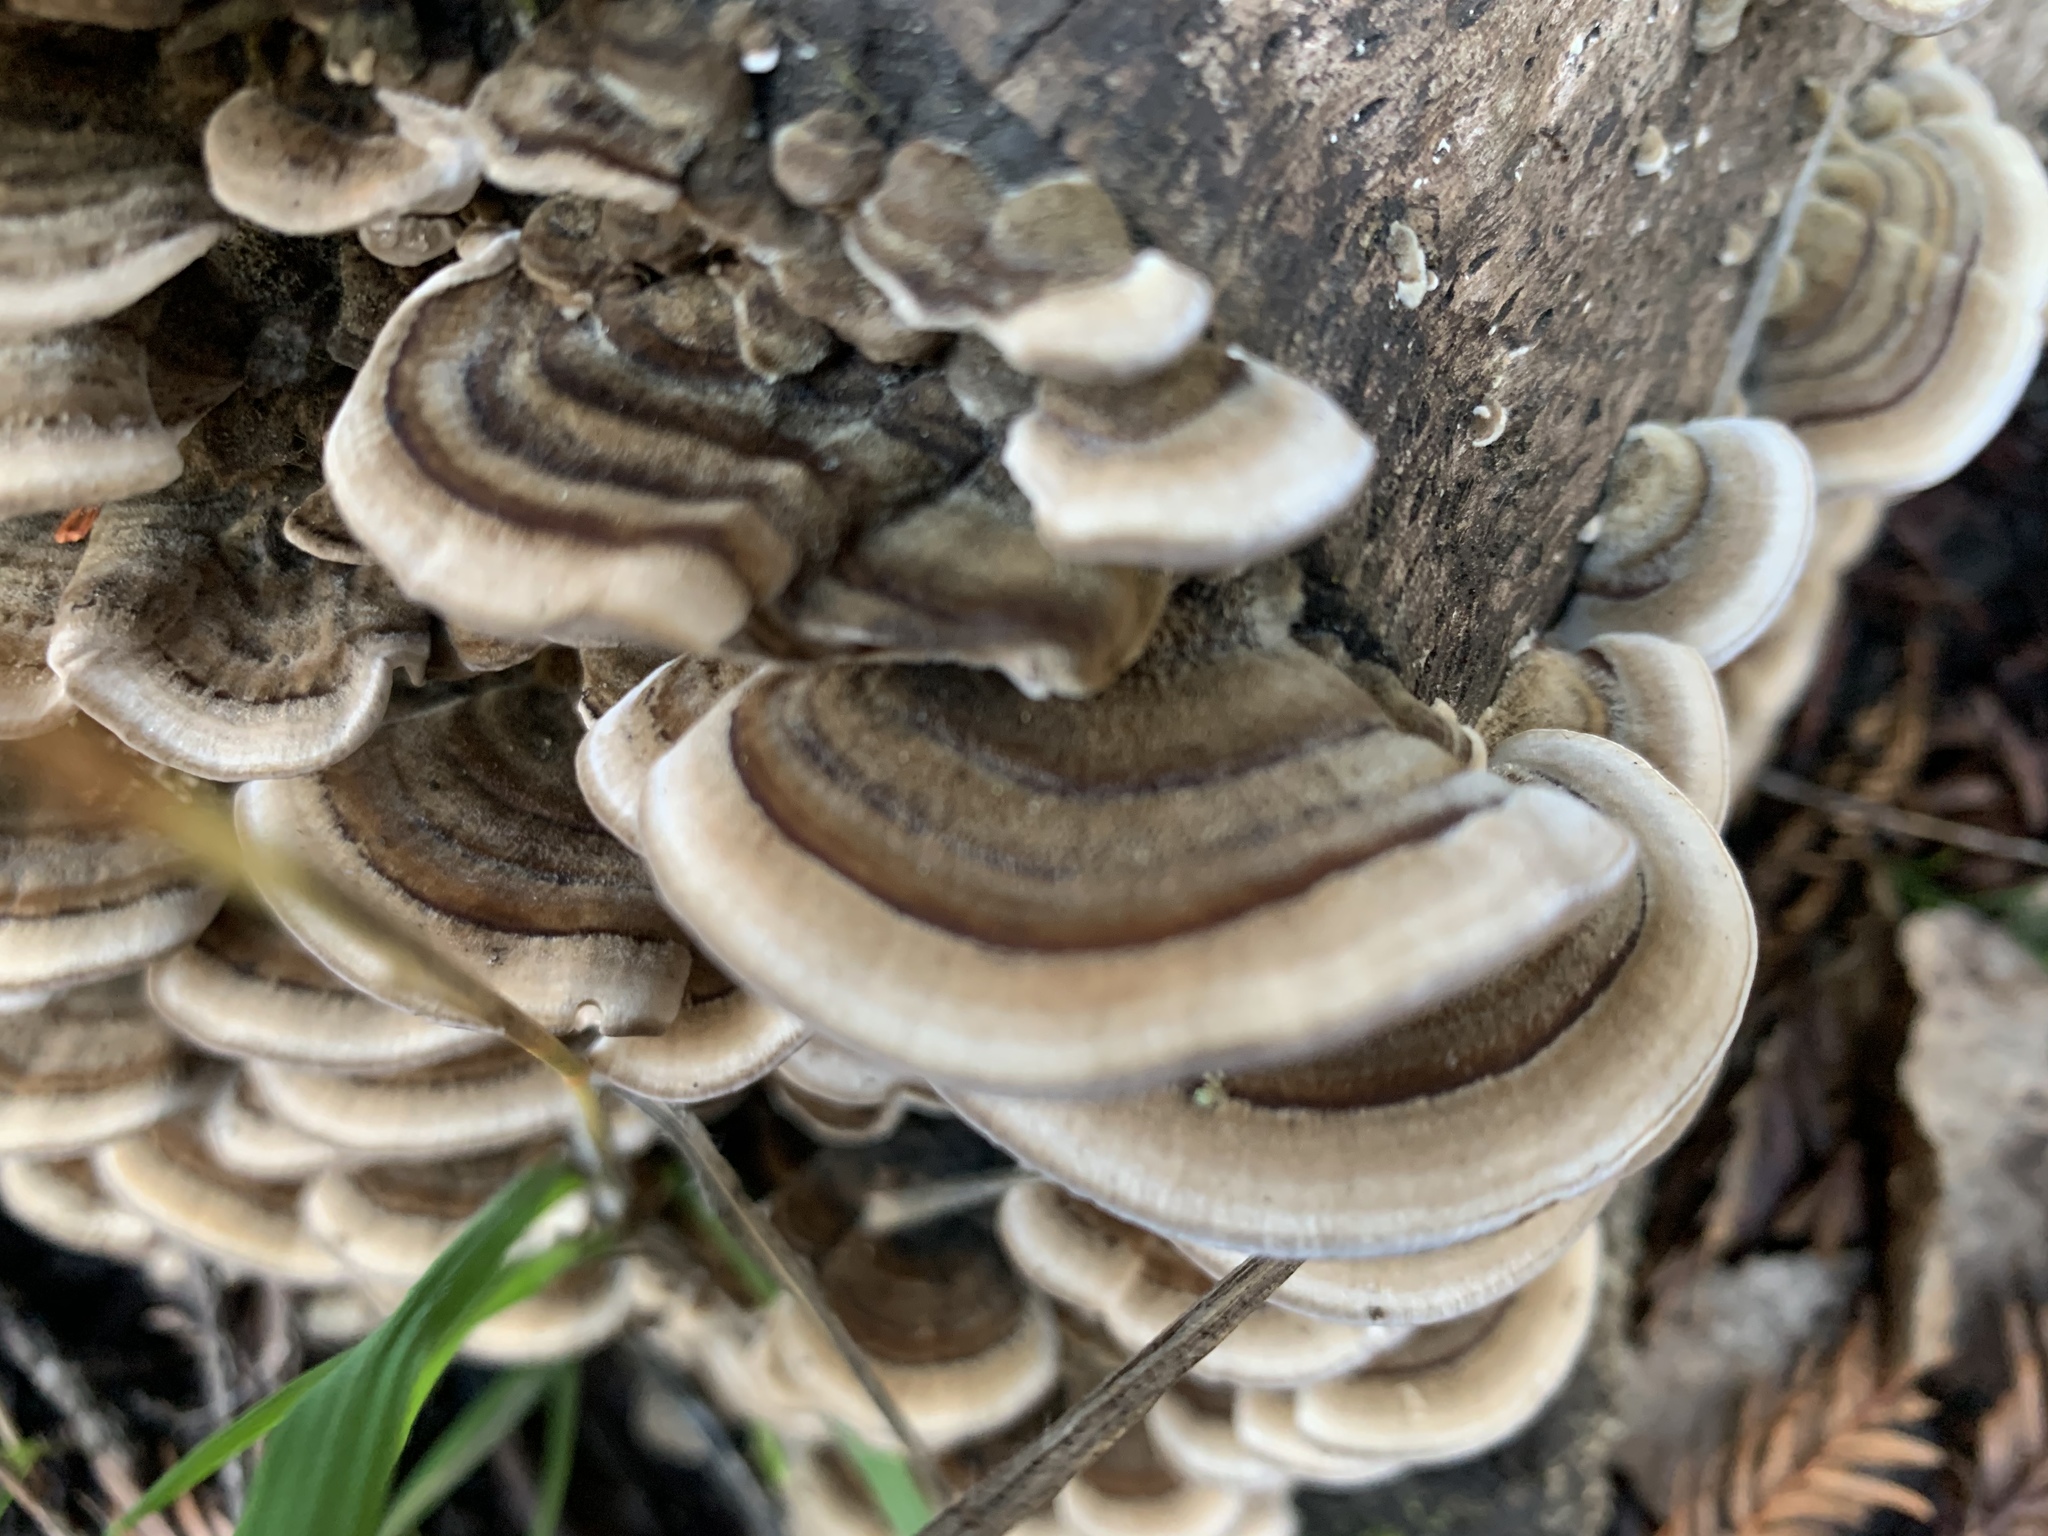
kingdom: Fungi
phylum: Basidiomycota
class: Agaricomycetes
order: Polyporales
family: Polyporaceae
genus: Trametes
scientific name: Trametes versicolor
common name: Turkeytail
